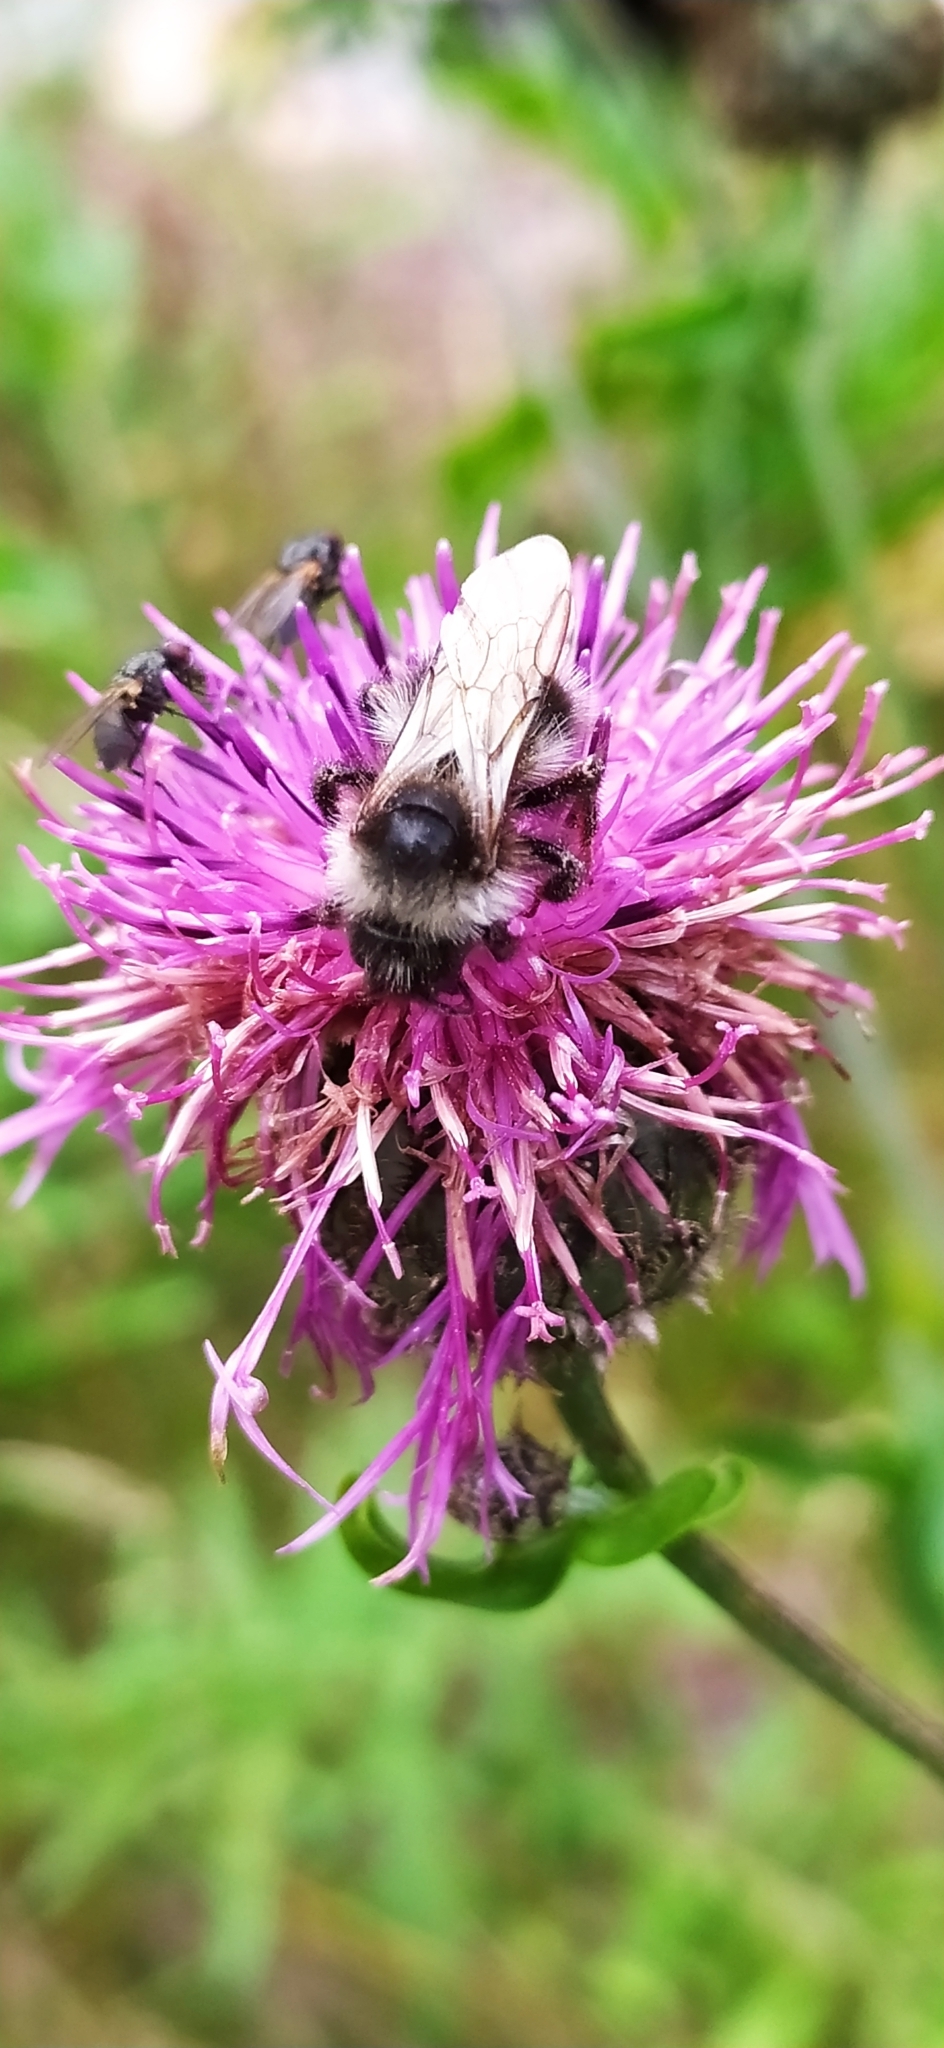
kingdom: Animalia
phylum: Arthropoda
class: Insecta
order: Hymenoptera
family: Apidae
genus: Bombus
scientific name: Bombus
